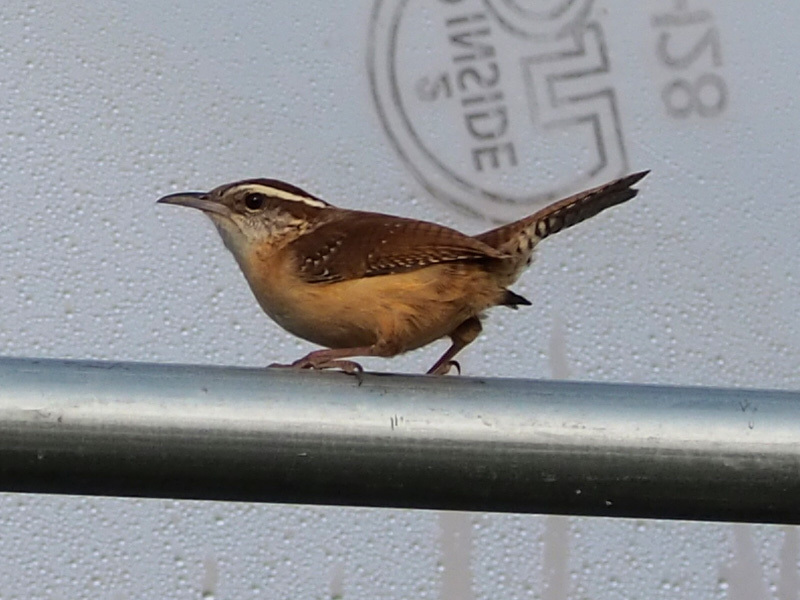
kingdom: Animalia
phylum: Chordata
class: Aves
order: Passeriformes
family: Troglodytidae
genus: Thryothorus
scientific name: Thryothorus ludovicianus
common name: Carolina wren
